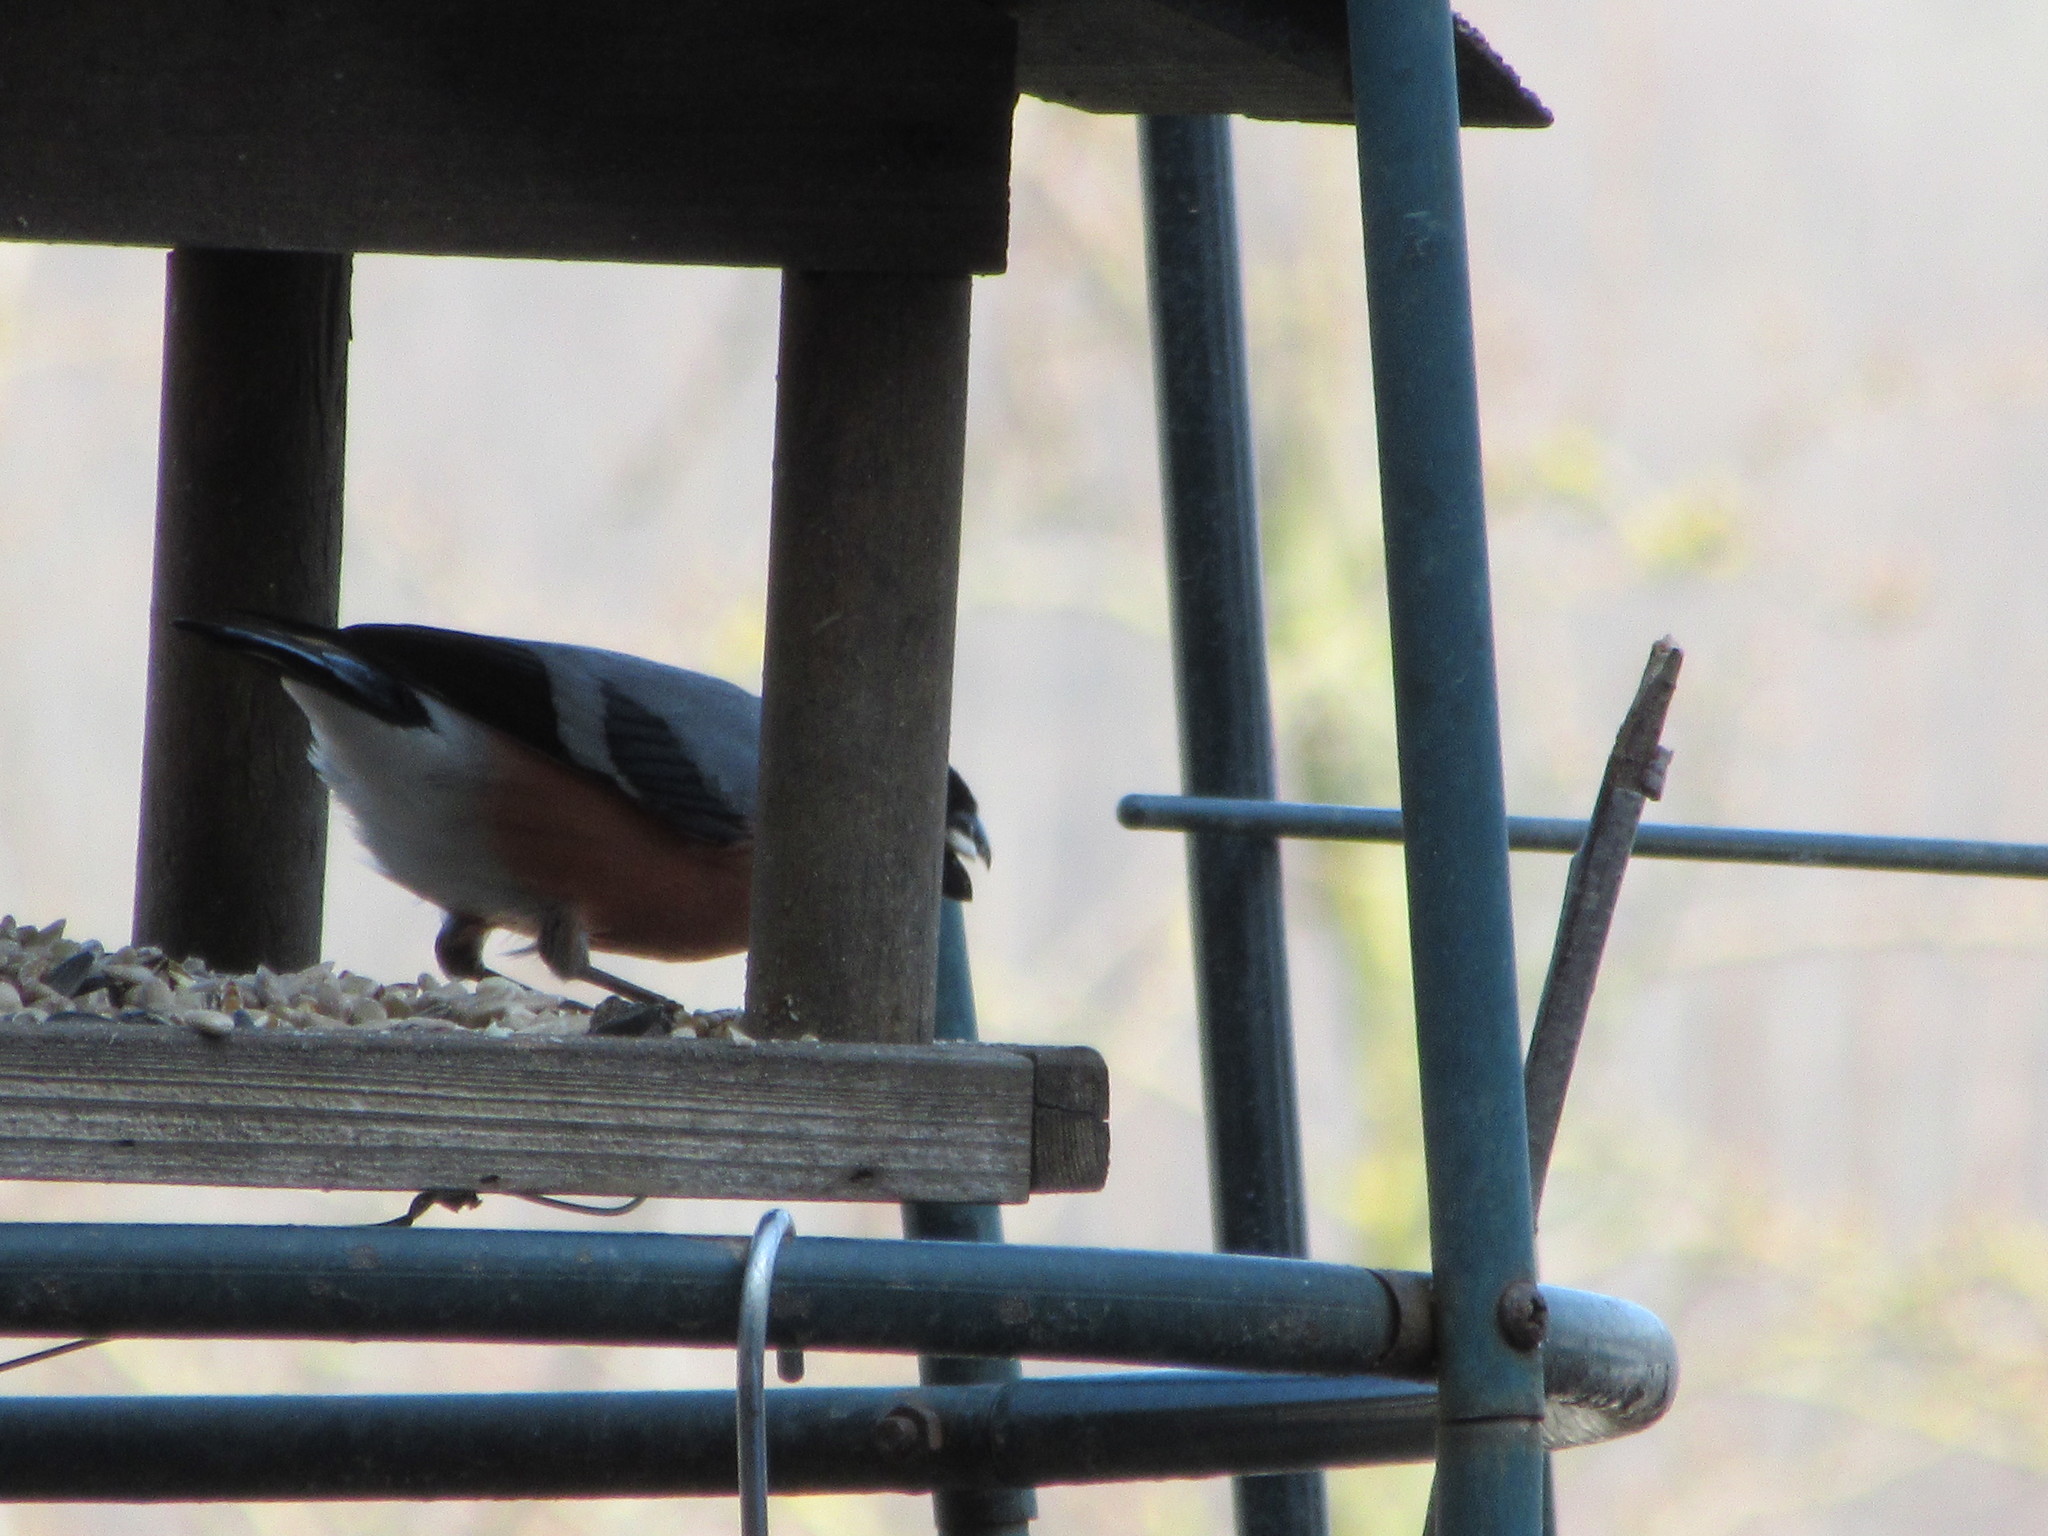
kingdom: Animalia
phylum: Chordata
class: Aves
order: Passeriformes
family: Fringillidae
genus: Pyrrhula
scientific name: Pyrrhula pyrrhula
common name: Eurasian bullfinch
